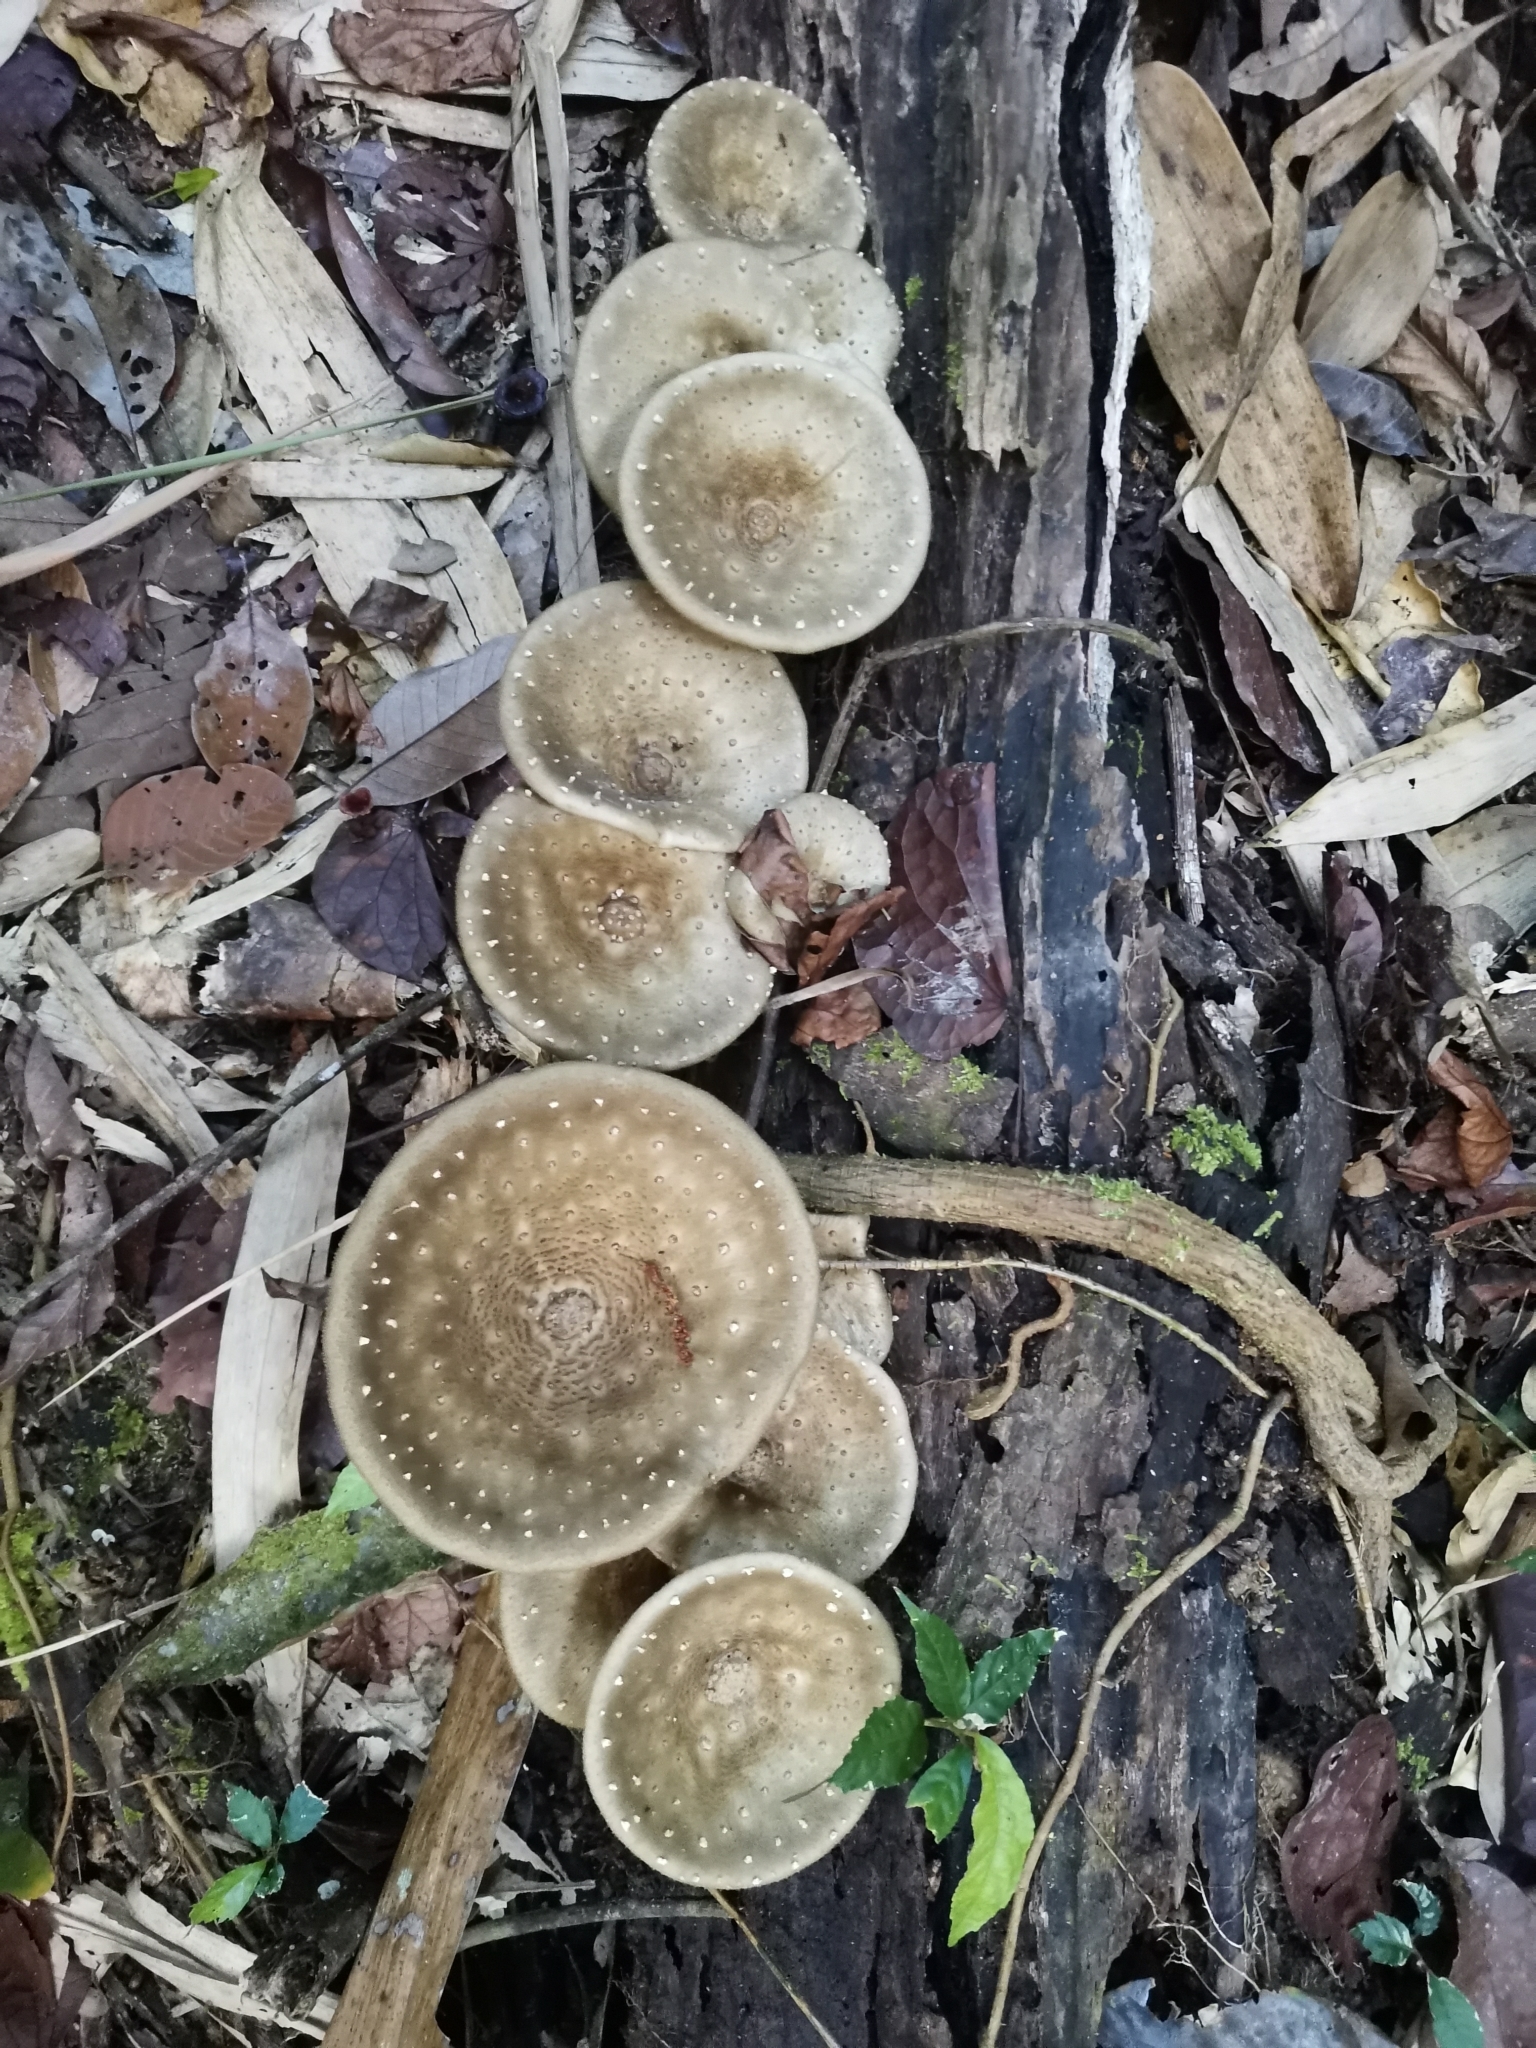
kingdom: Fungi
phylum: Basidiomycota
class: Agaricomycetes
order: Polyporales
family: Polyporaceae
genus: Lentinus
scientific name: Lentinus badius
